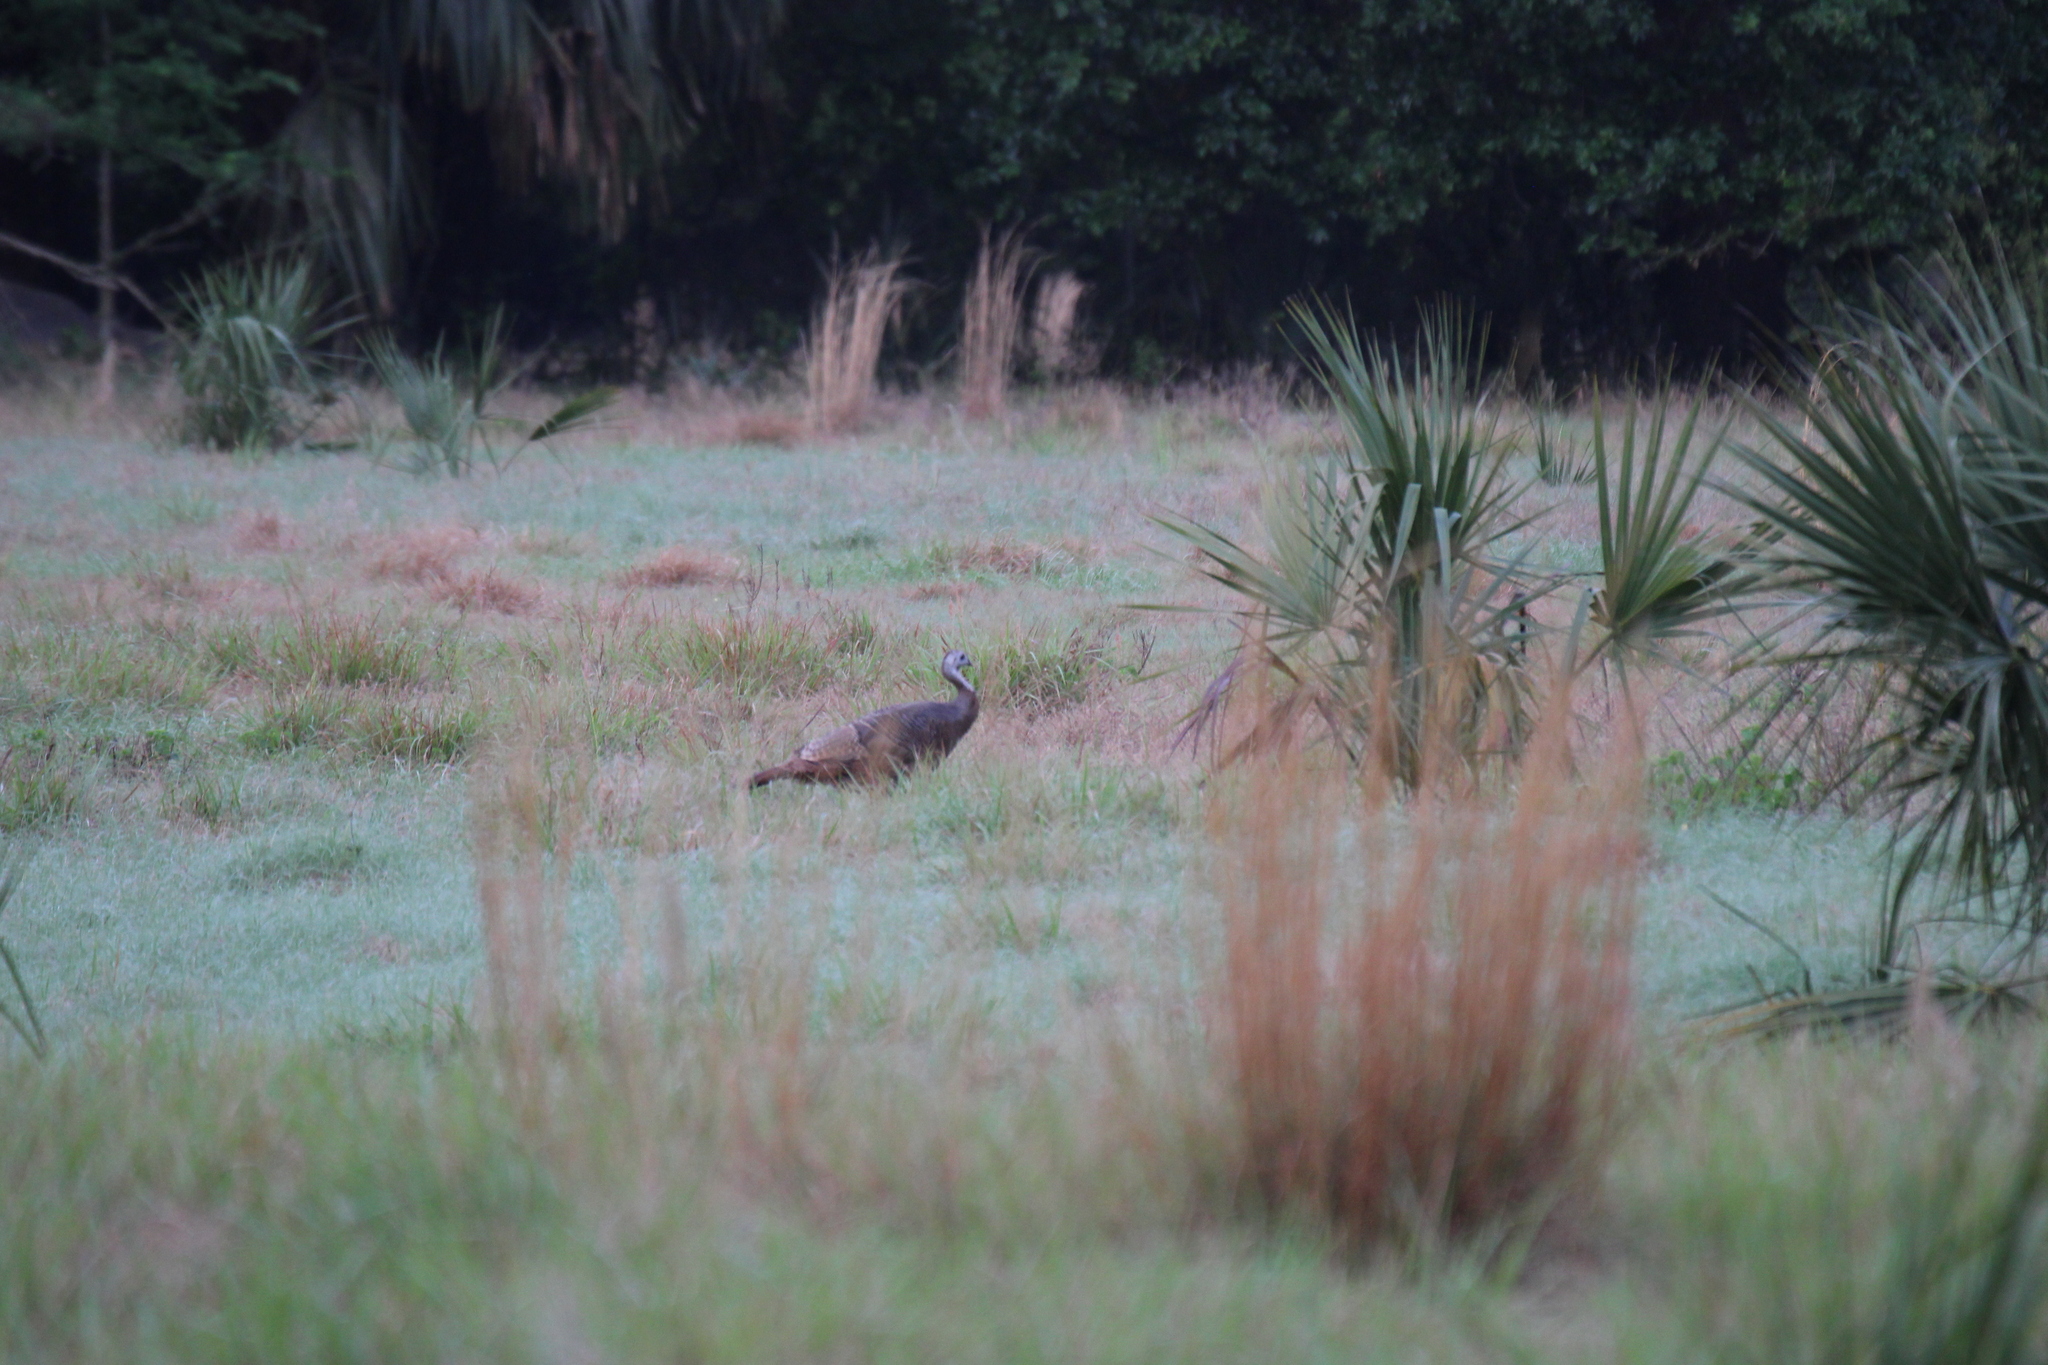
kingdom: Animalia
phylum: Chordata
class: Aves
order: Galliformes
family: Phasianidae
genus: Meleagris
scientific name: Meleagris gallopavo
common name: Wild turkey
